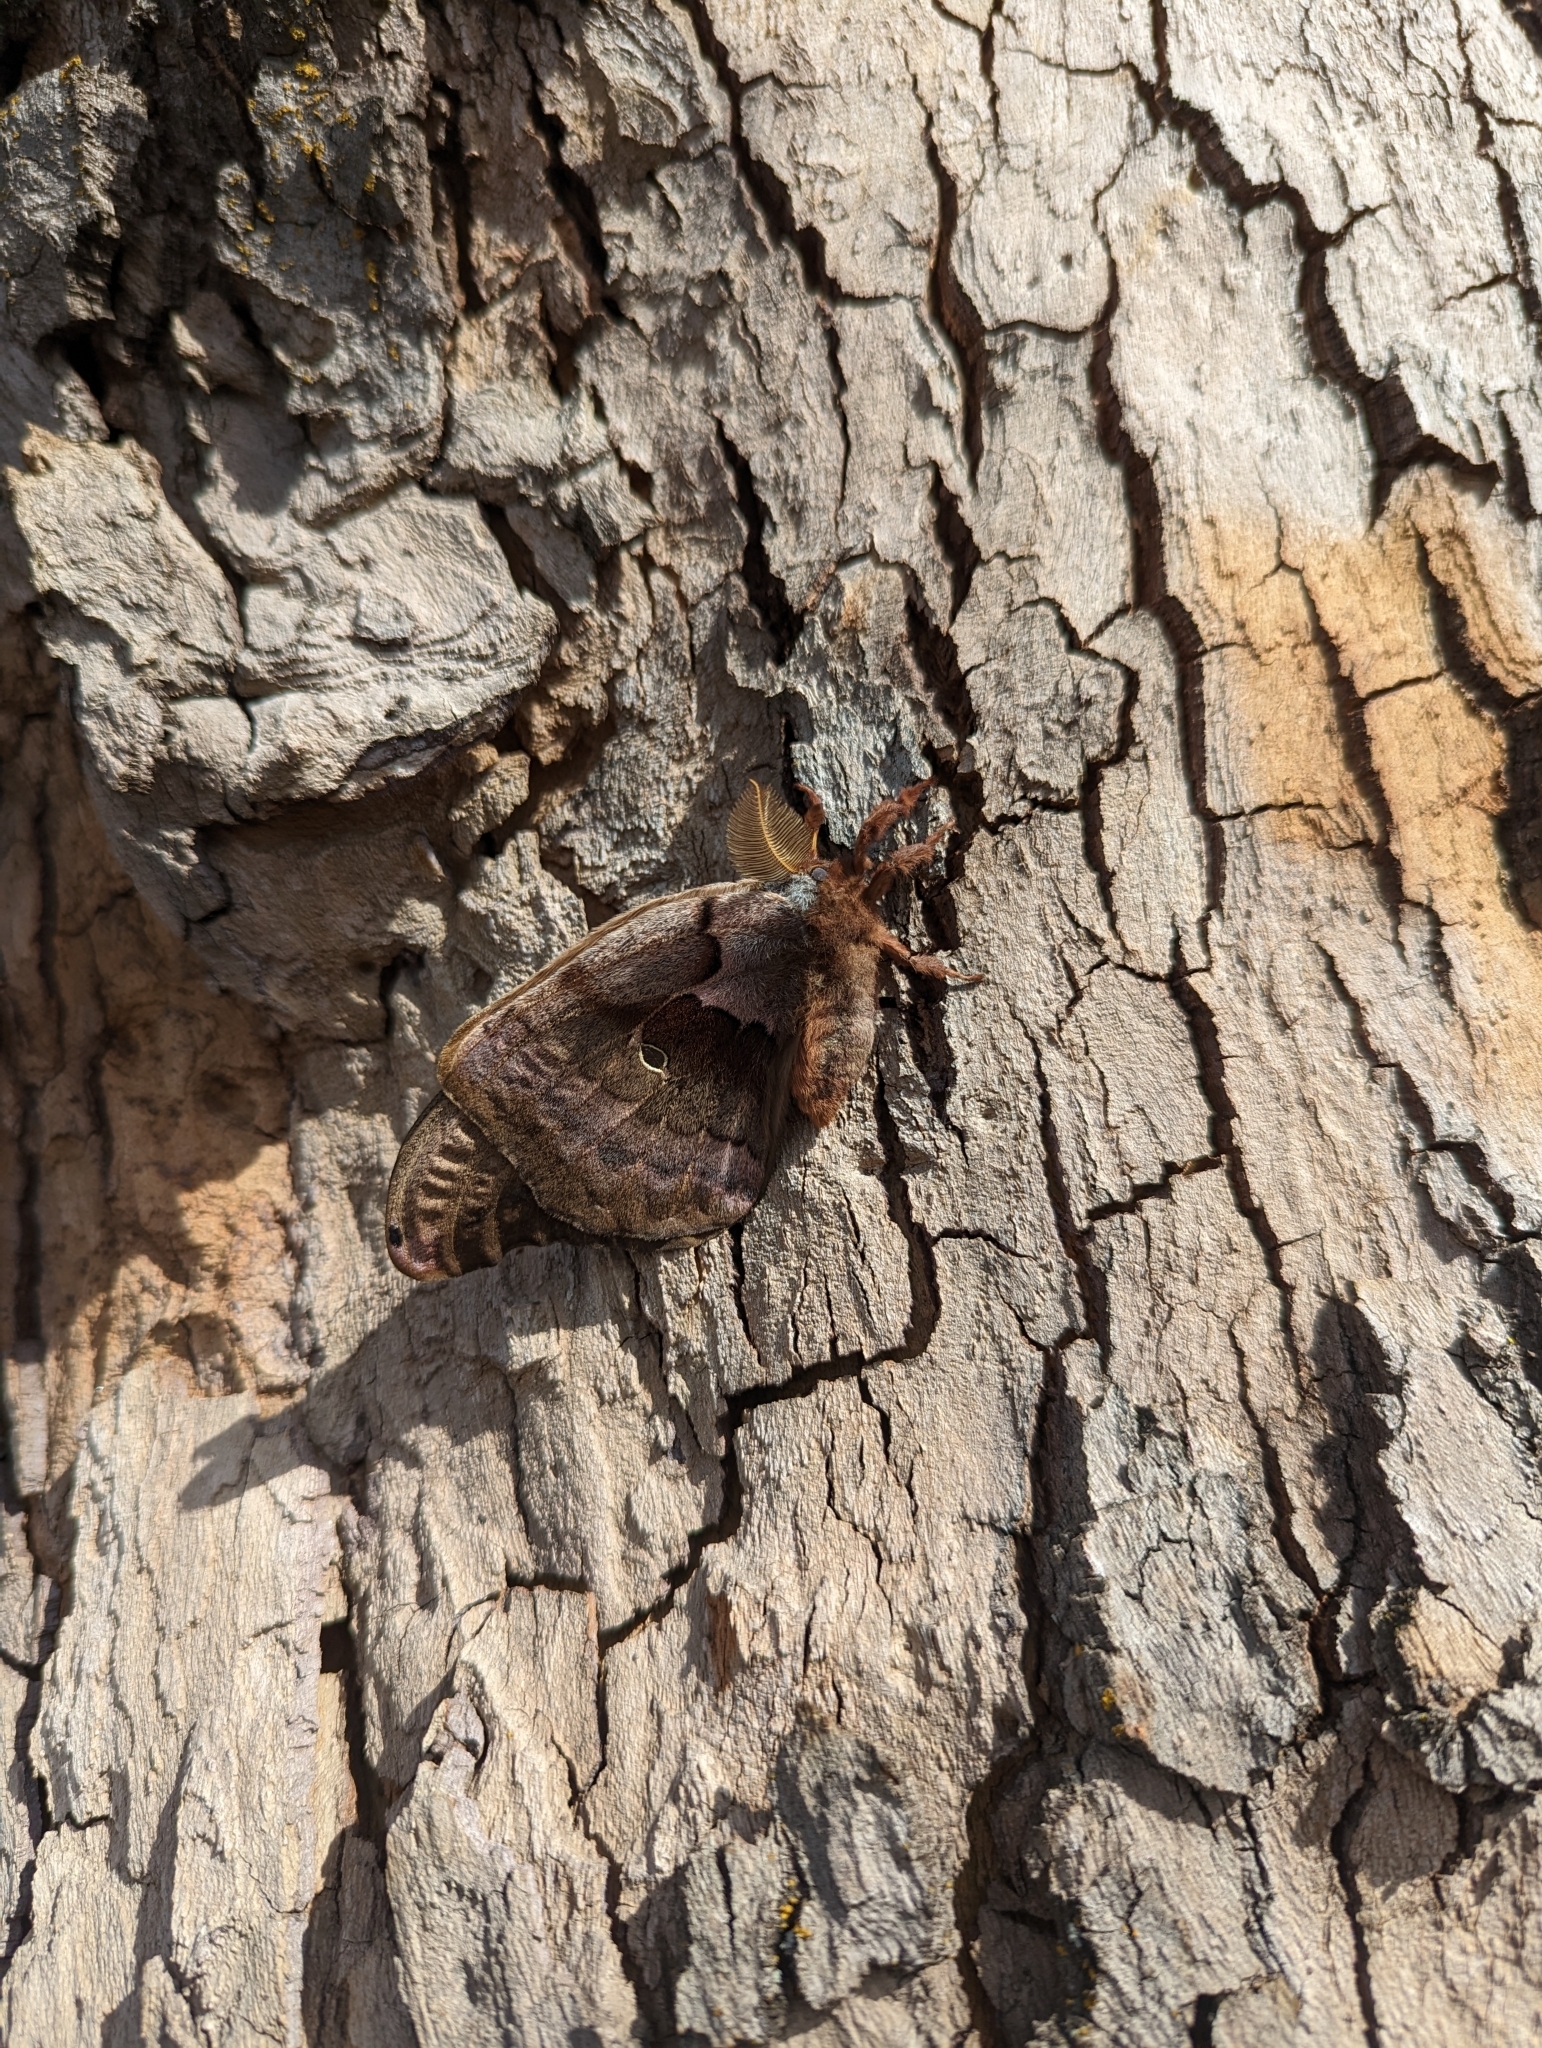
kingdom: Animalia
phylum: Arthropoda
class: Insecta
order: Lepidoptera
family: Saturniidae
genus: Antheraea
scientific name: Antheraea polyphemus
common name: Polyphemus moth
